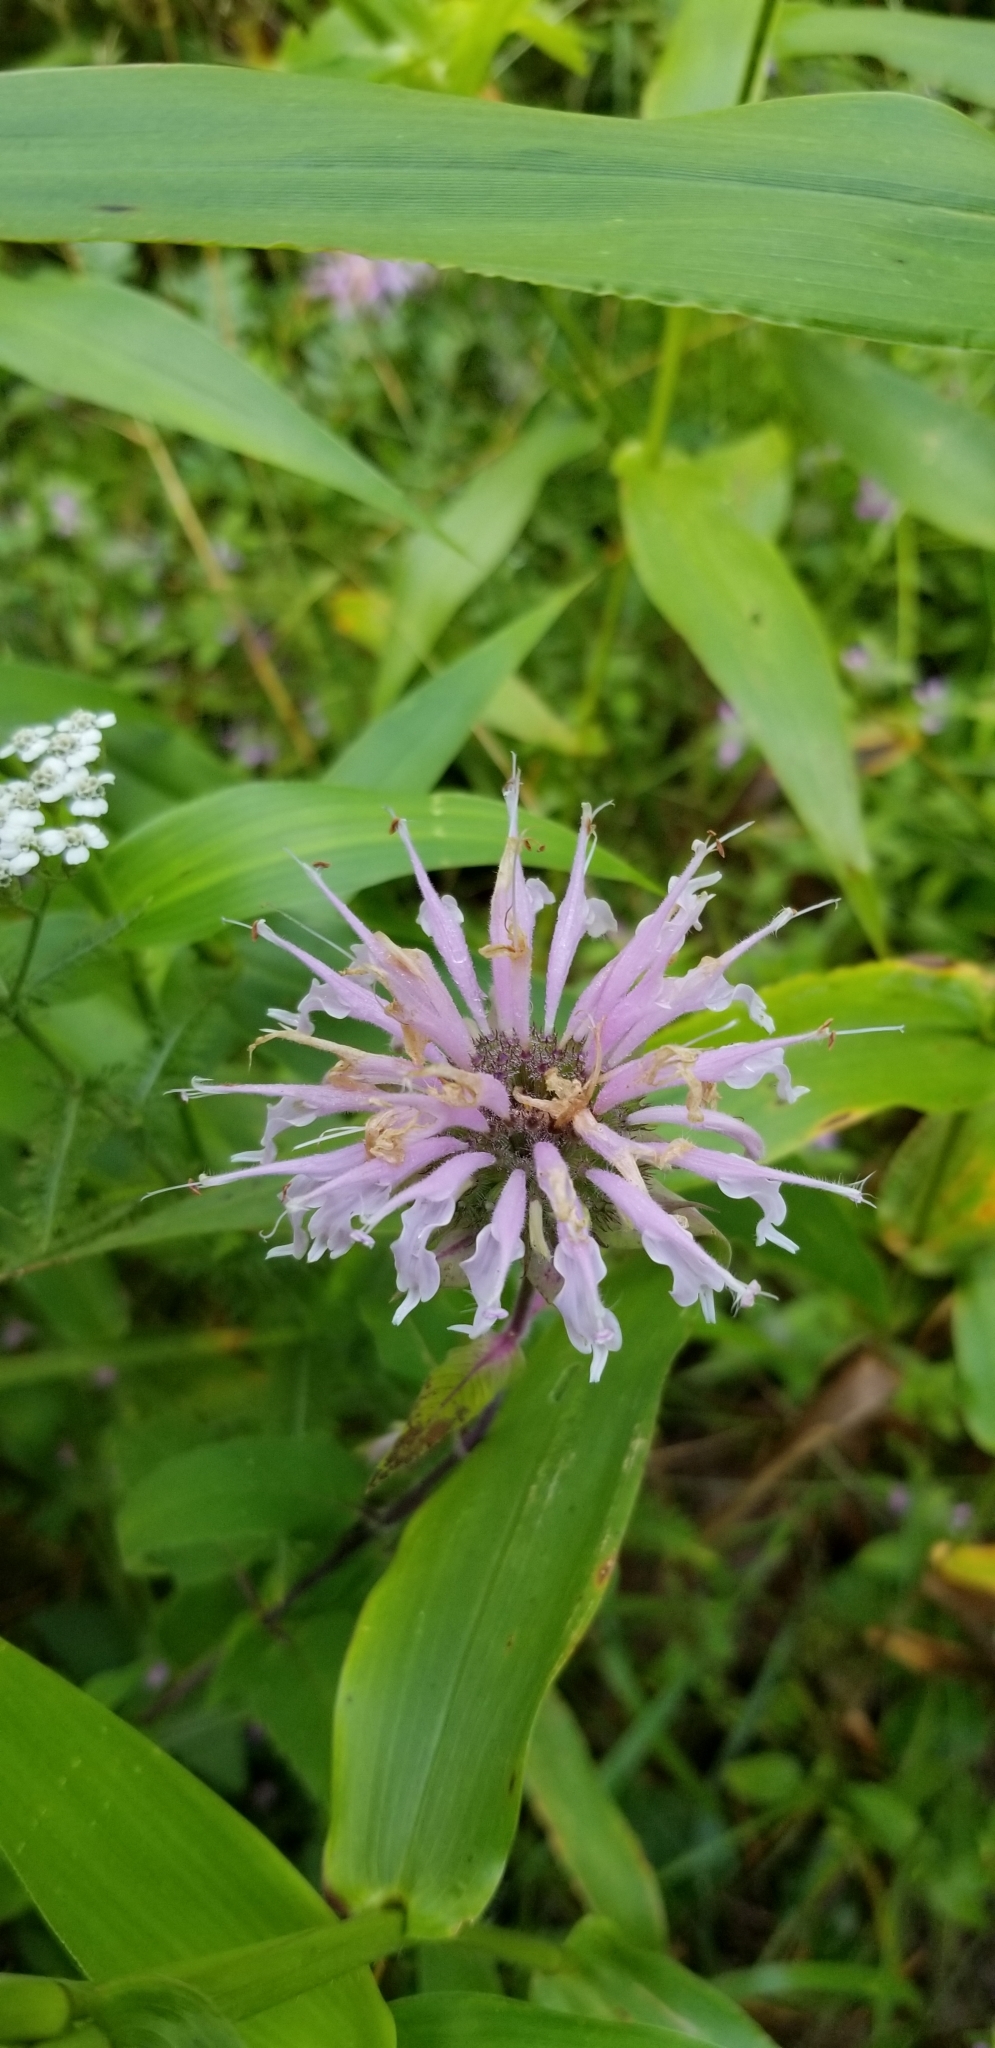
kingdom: Plantae
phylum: Tracheophyta
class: Magnoliopsida
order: Lamiales
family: Lamiaceae
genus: Monarda
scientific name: Monarda fistulosa
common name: Purple beebalm
